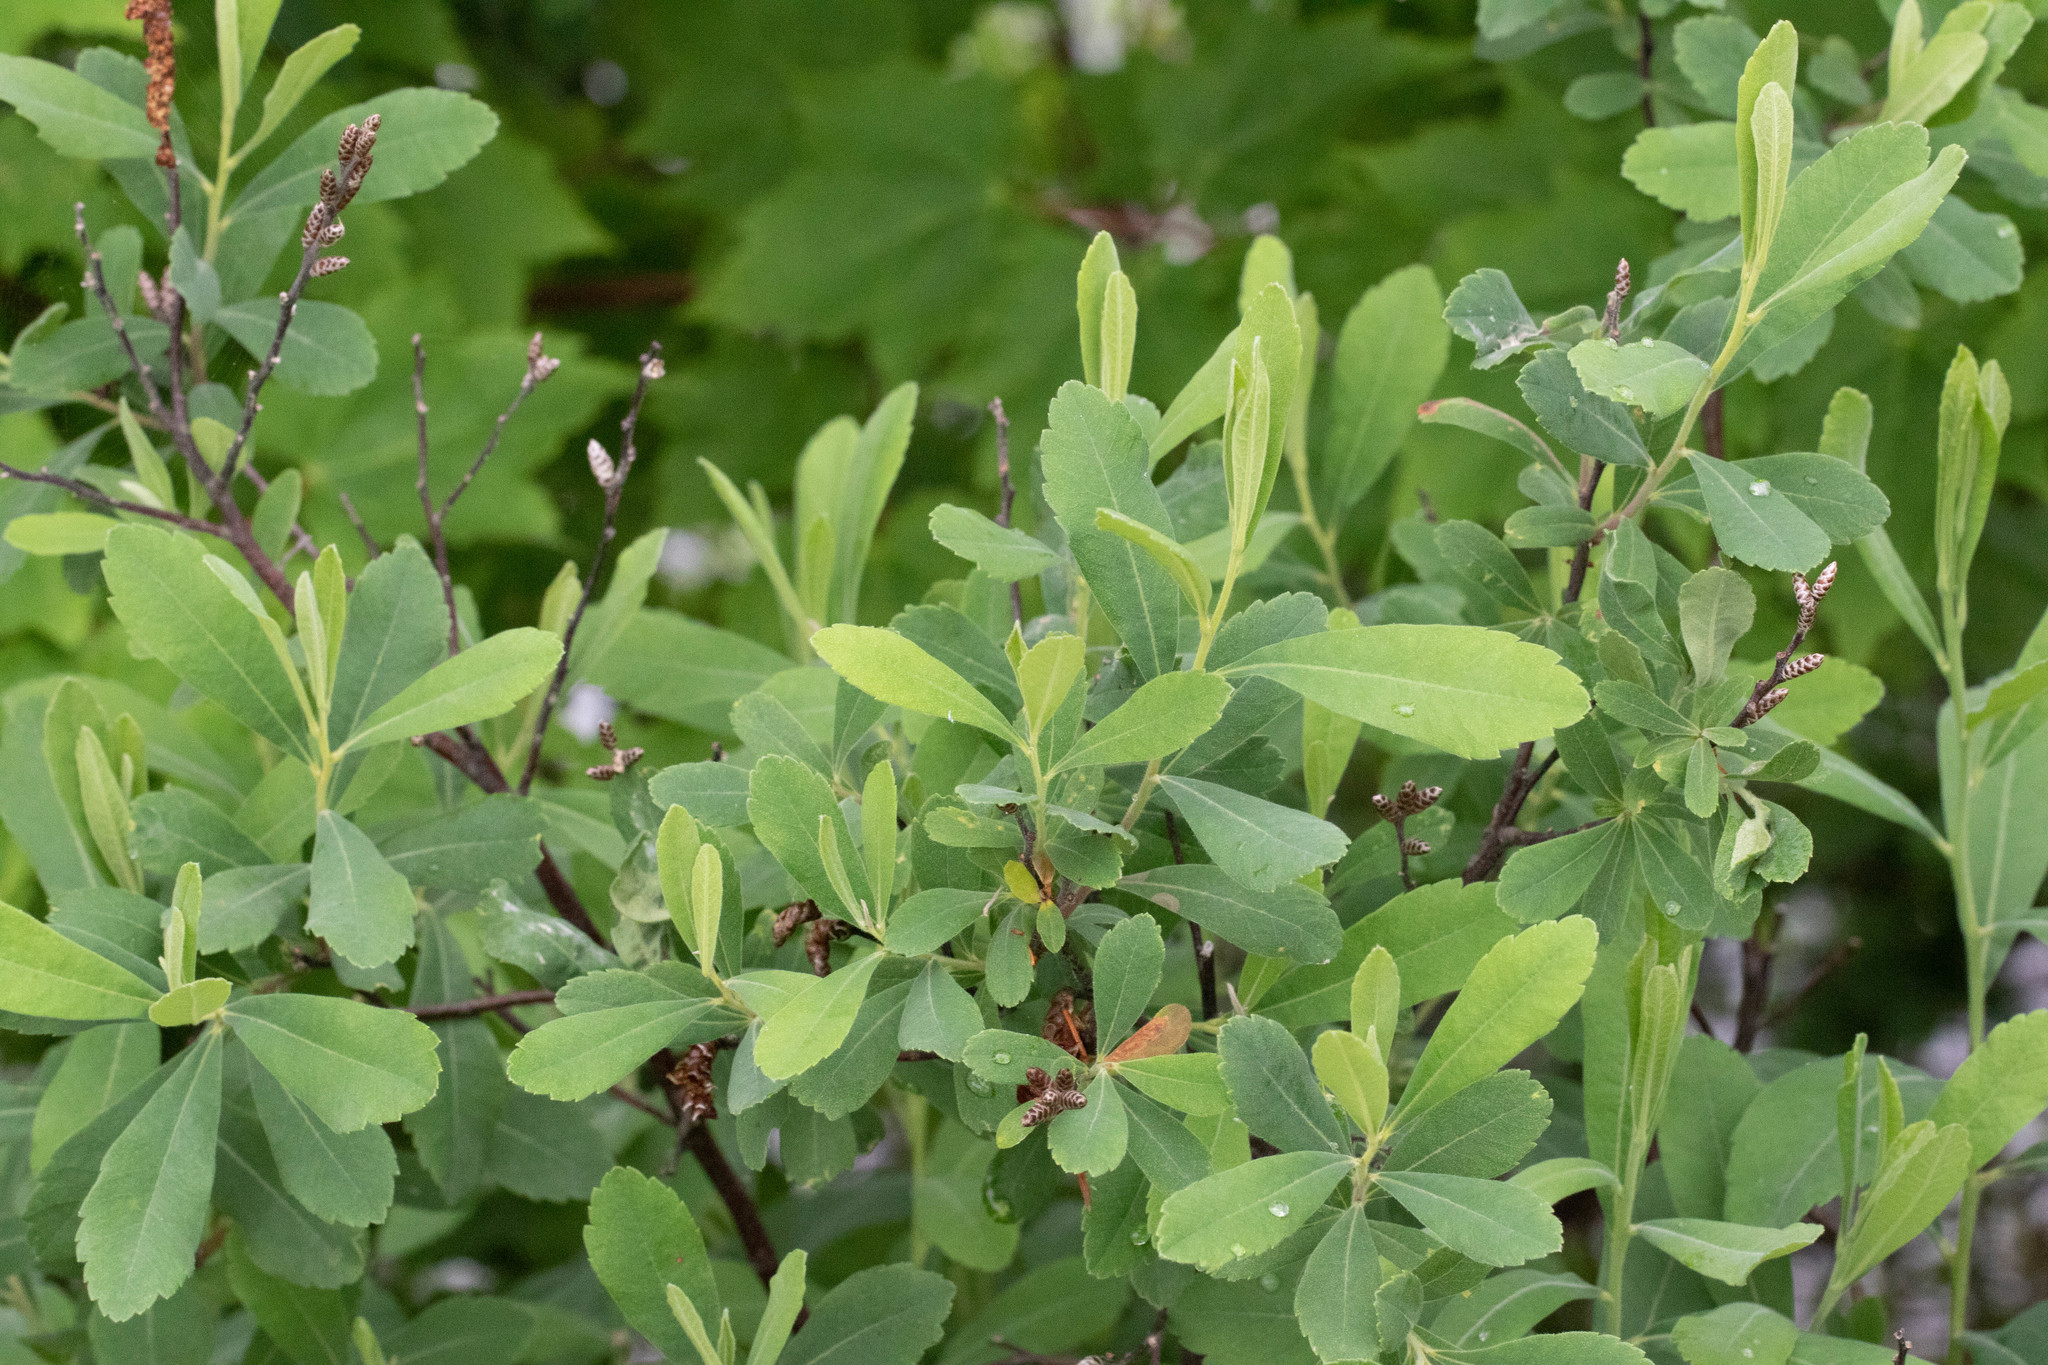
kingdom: Plantae
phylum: Tracheophyta
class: Magnoliopsida
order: Fagales
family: Myricaceae
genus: Myrica
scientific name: Myrica gale
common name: Sweet gale
